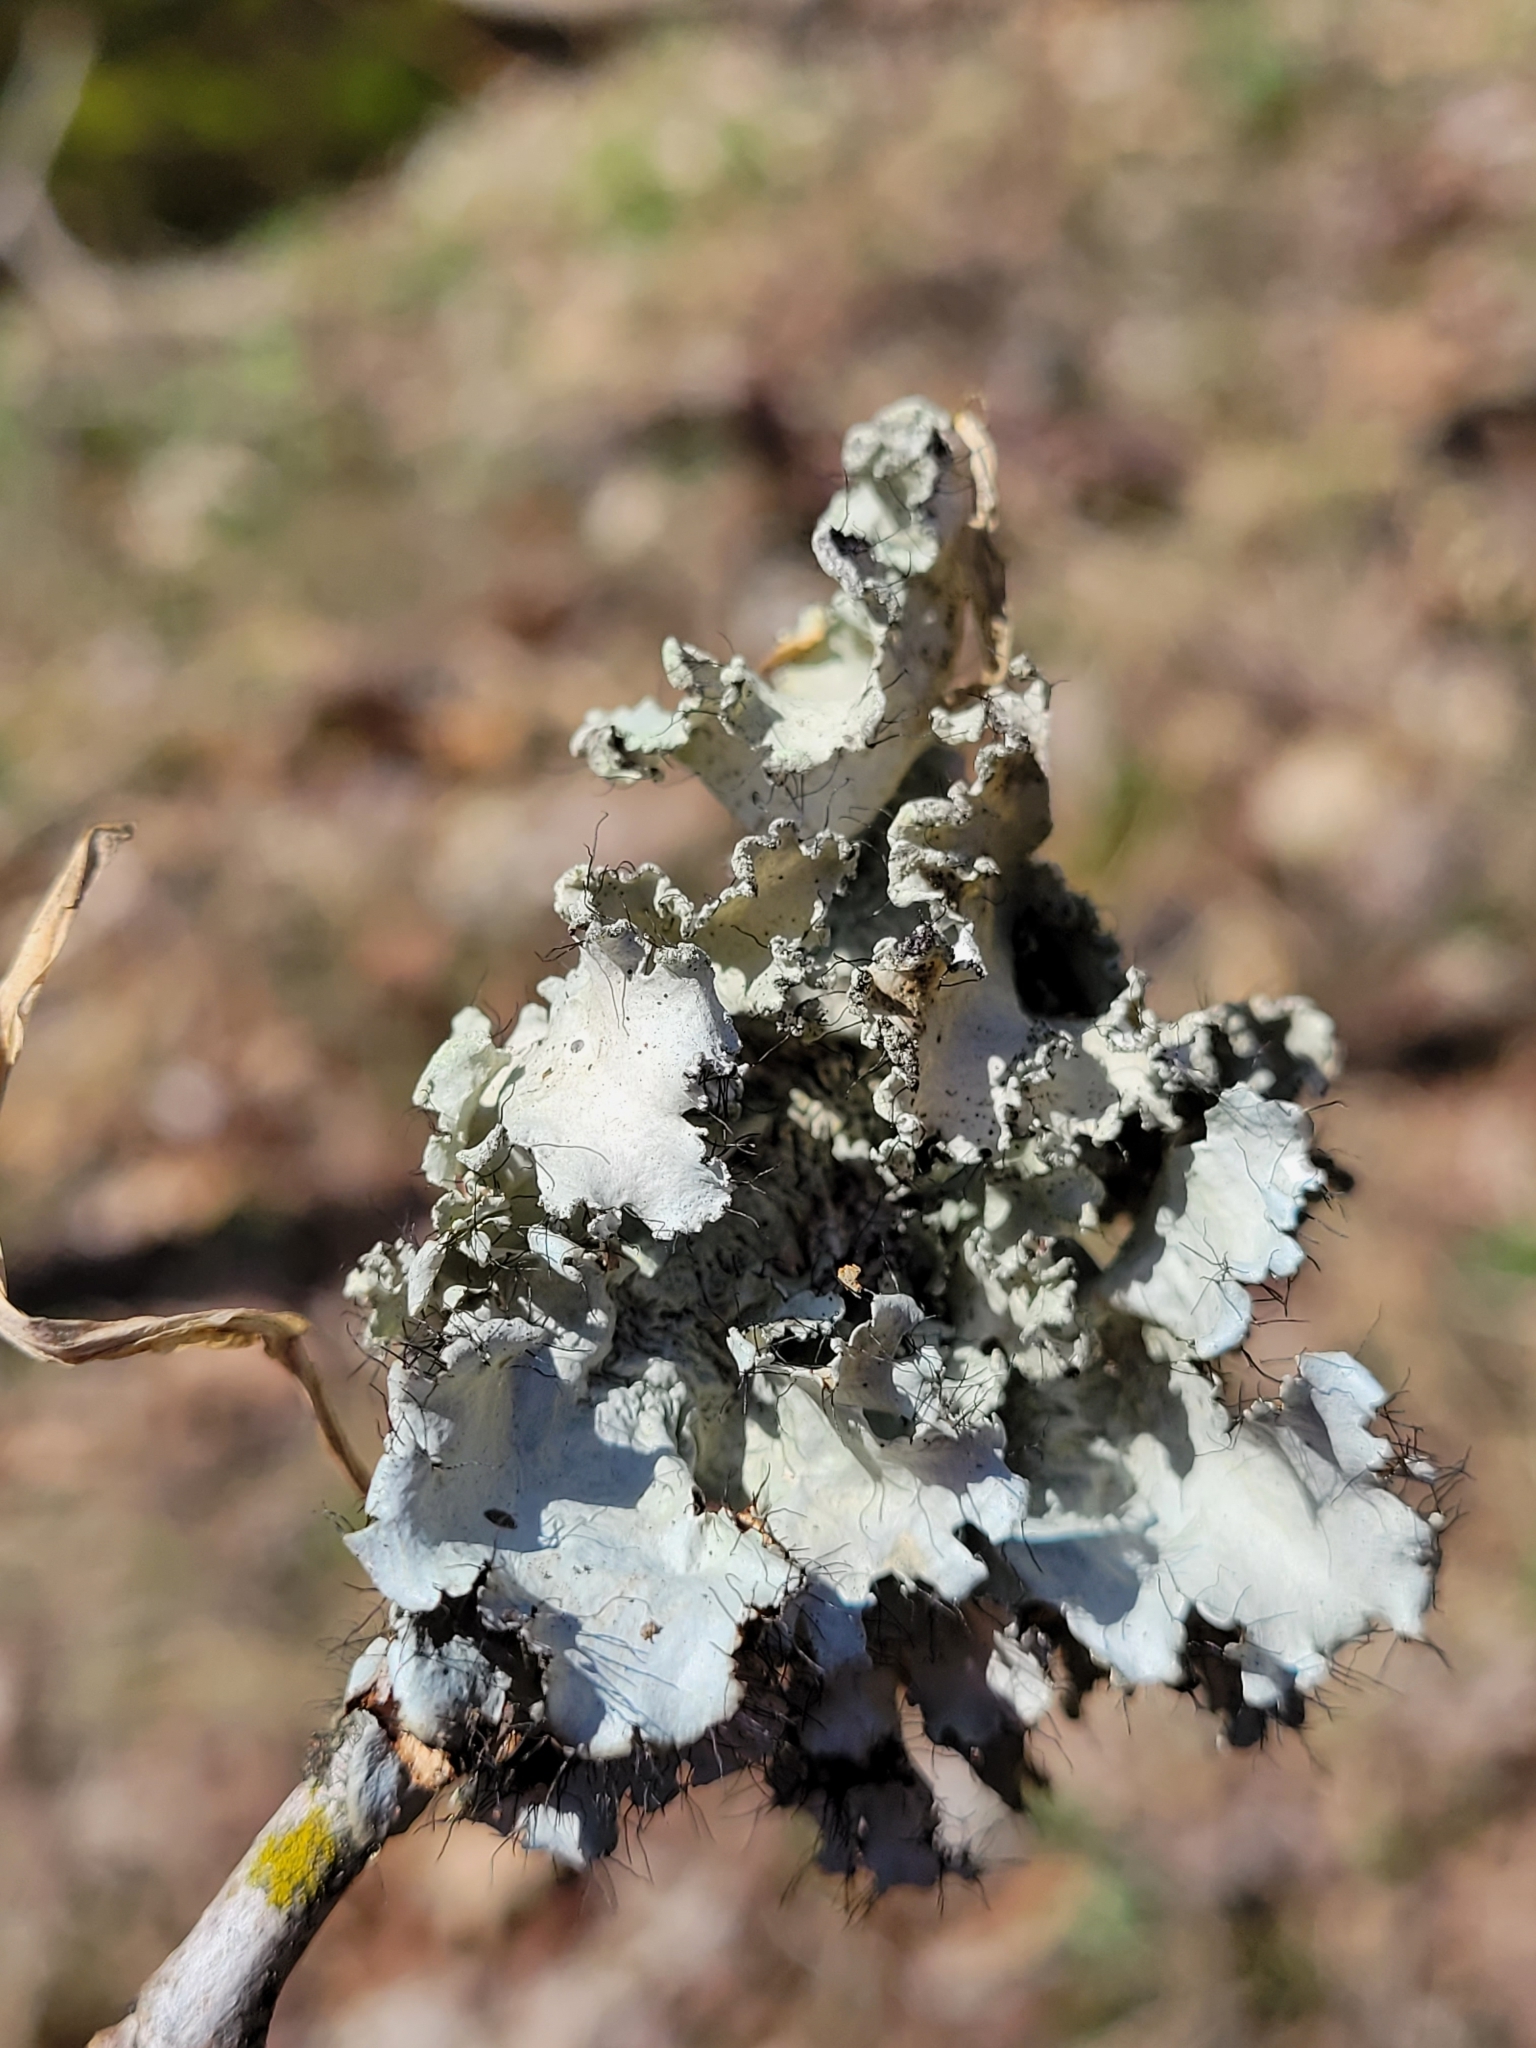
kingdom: Fungi
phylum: Ascomycota
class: Lecanoromycetes
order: Lecanorales
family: Parmeliaceae
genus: Parmotrema
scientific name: Parmotrema hypotropum
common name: Powdered ruffle lichen
